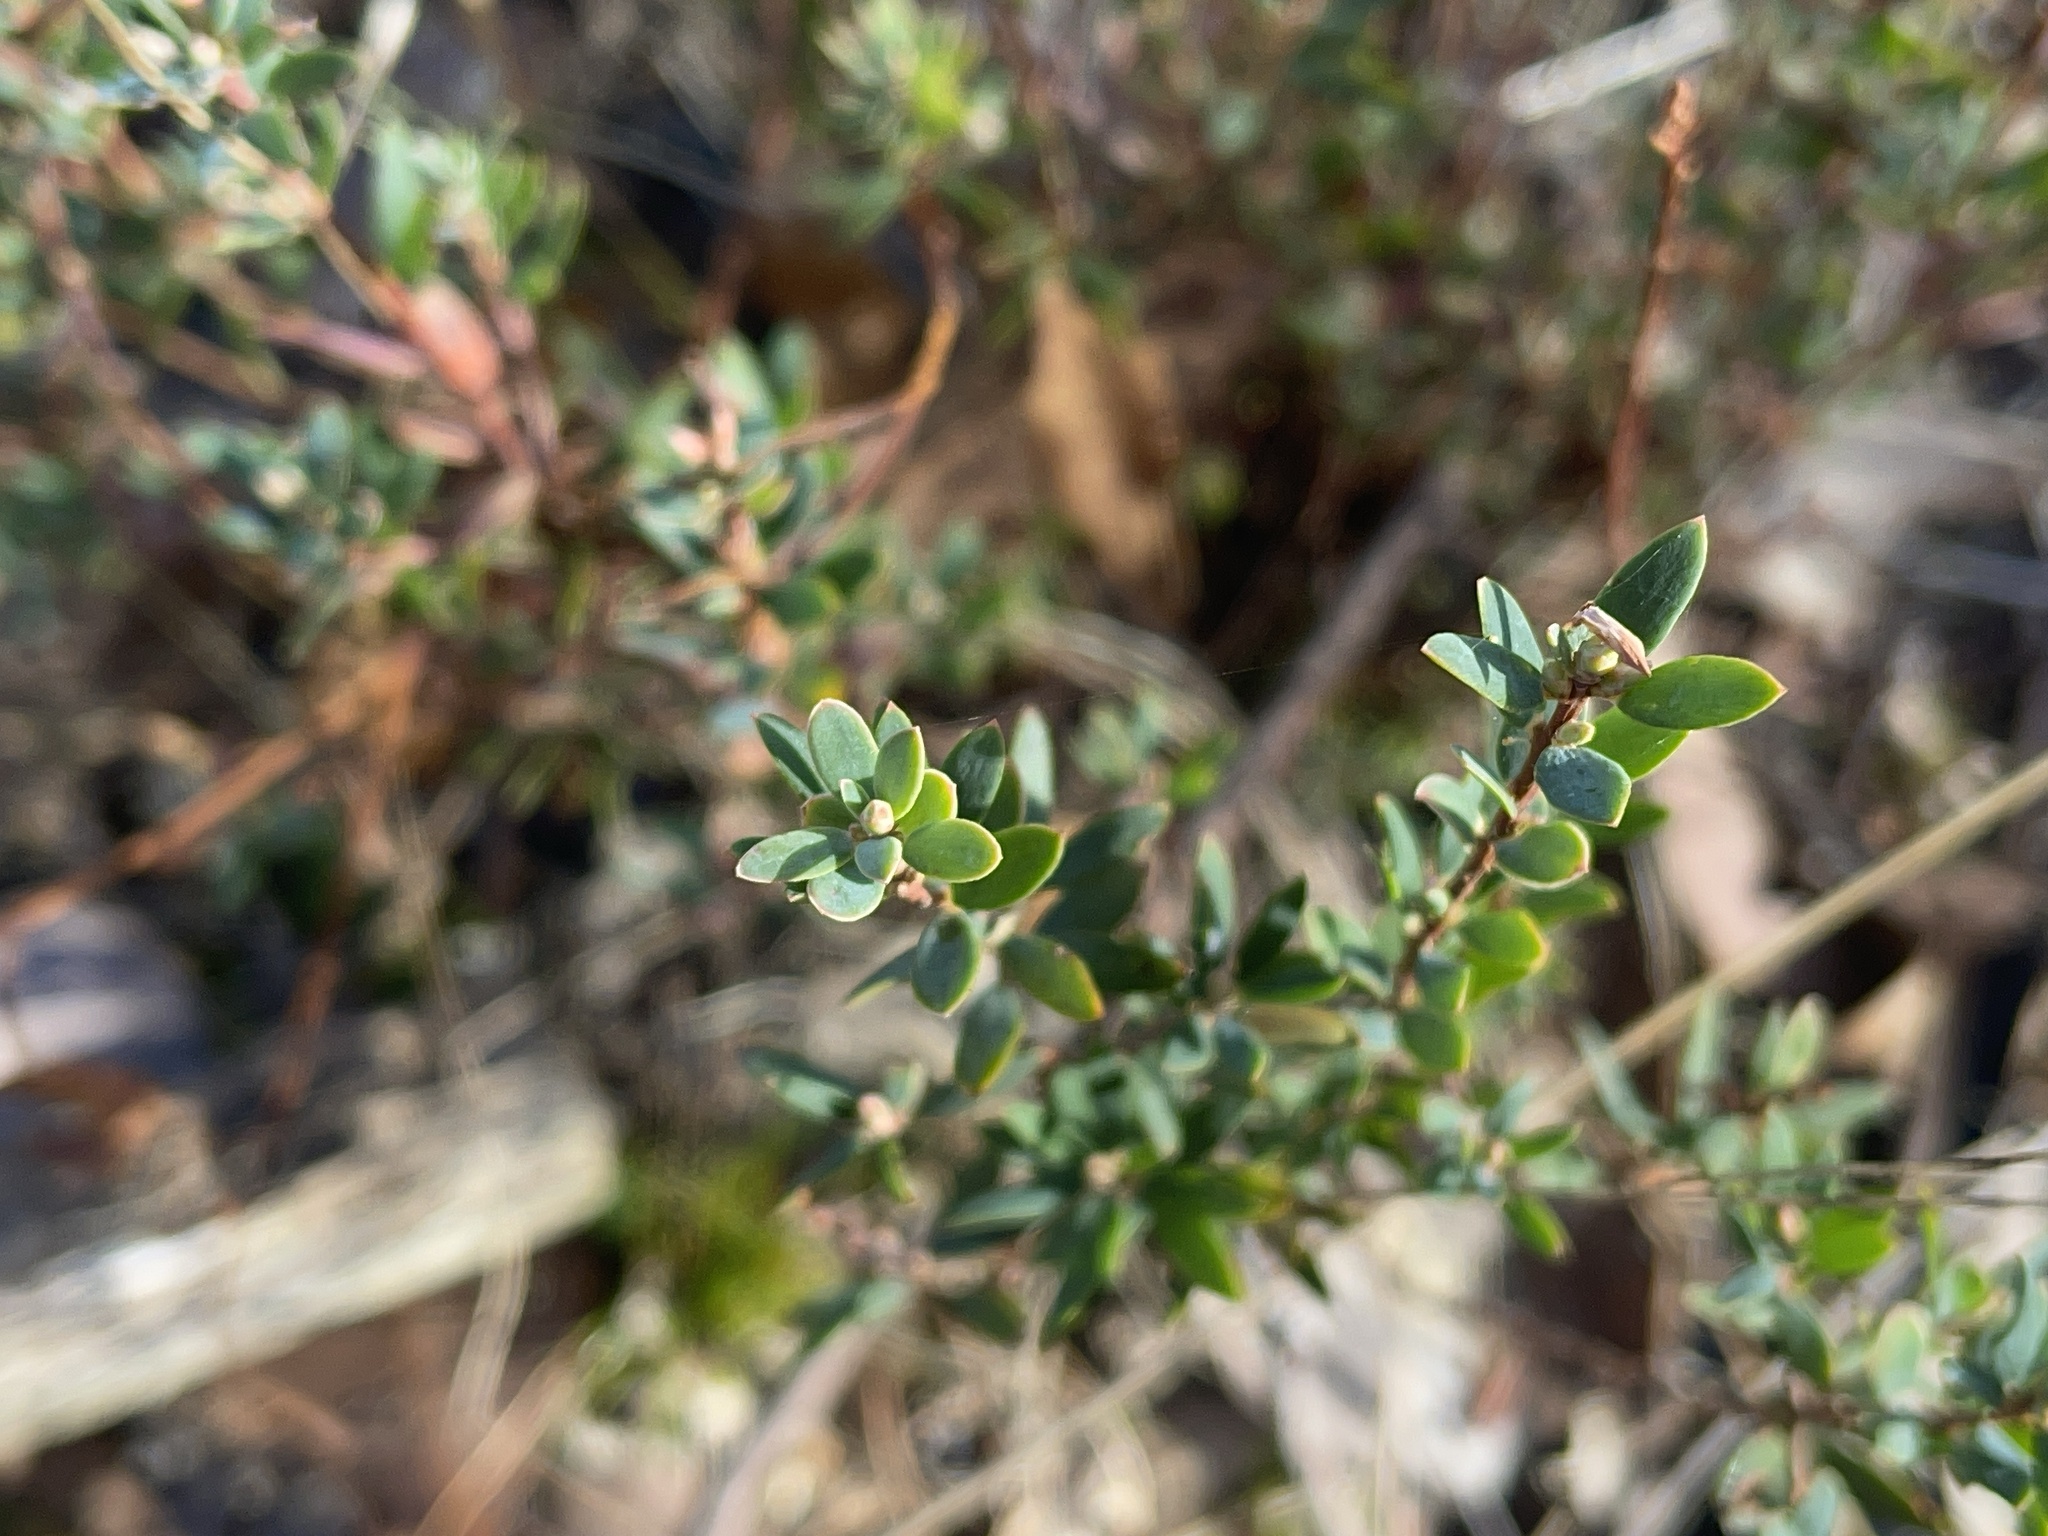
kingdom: Plantae
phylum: Tracheophyta
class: Magnoliopsida
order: Ericales
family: Ericaceae
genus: Brachyloma
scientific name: Brachyloma daphnoides
